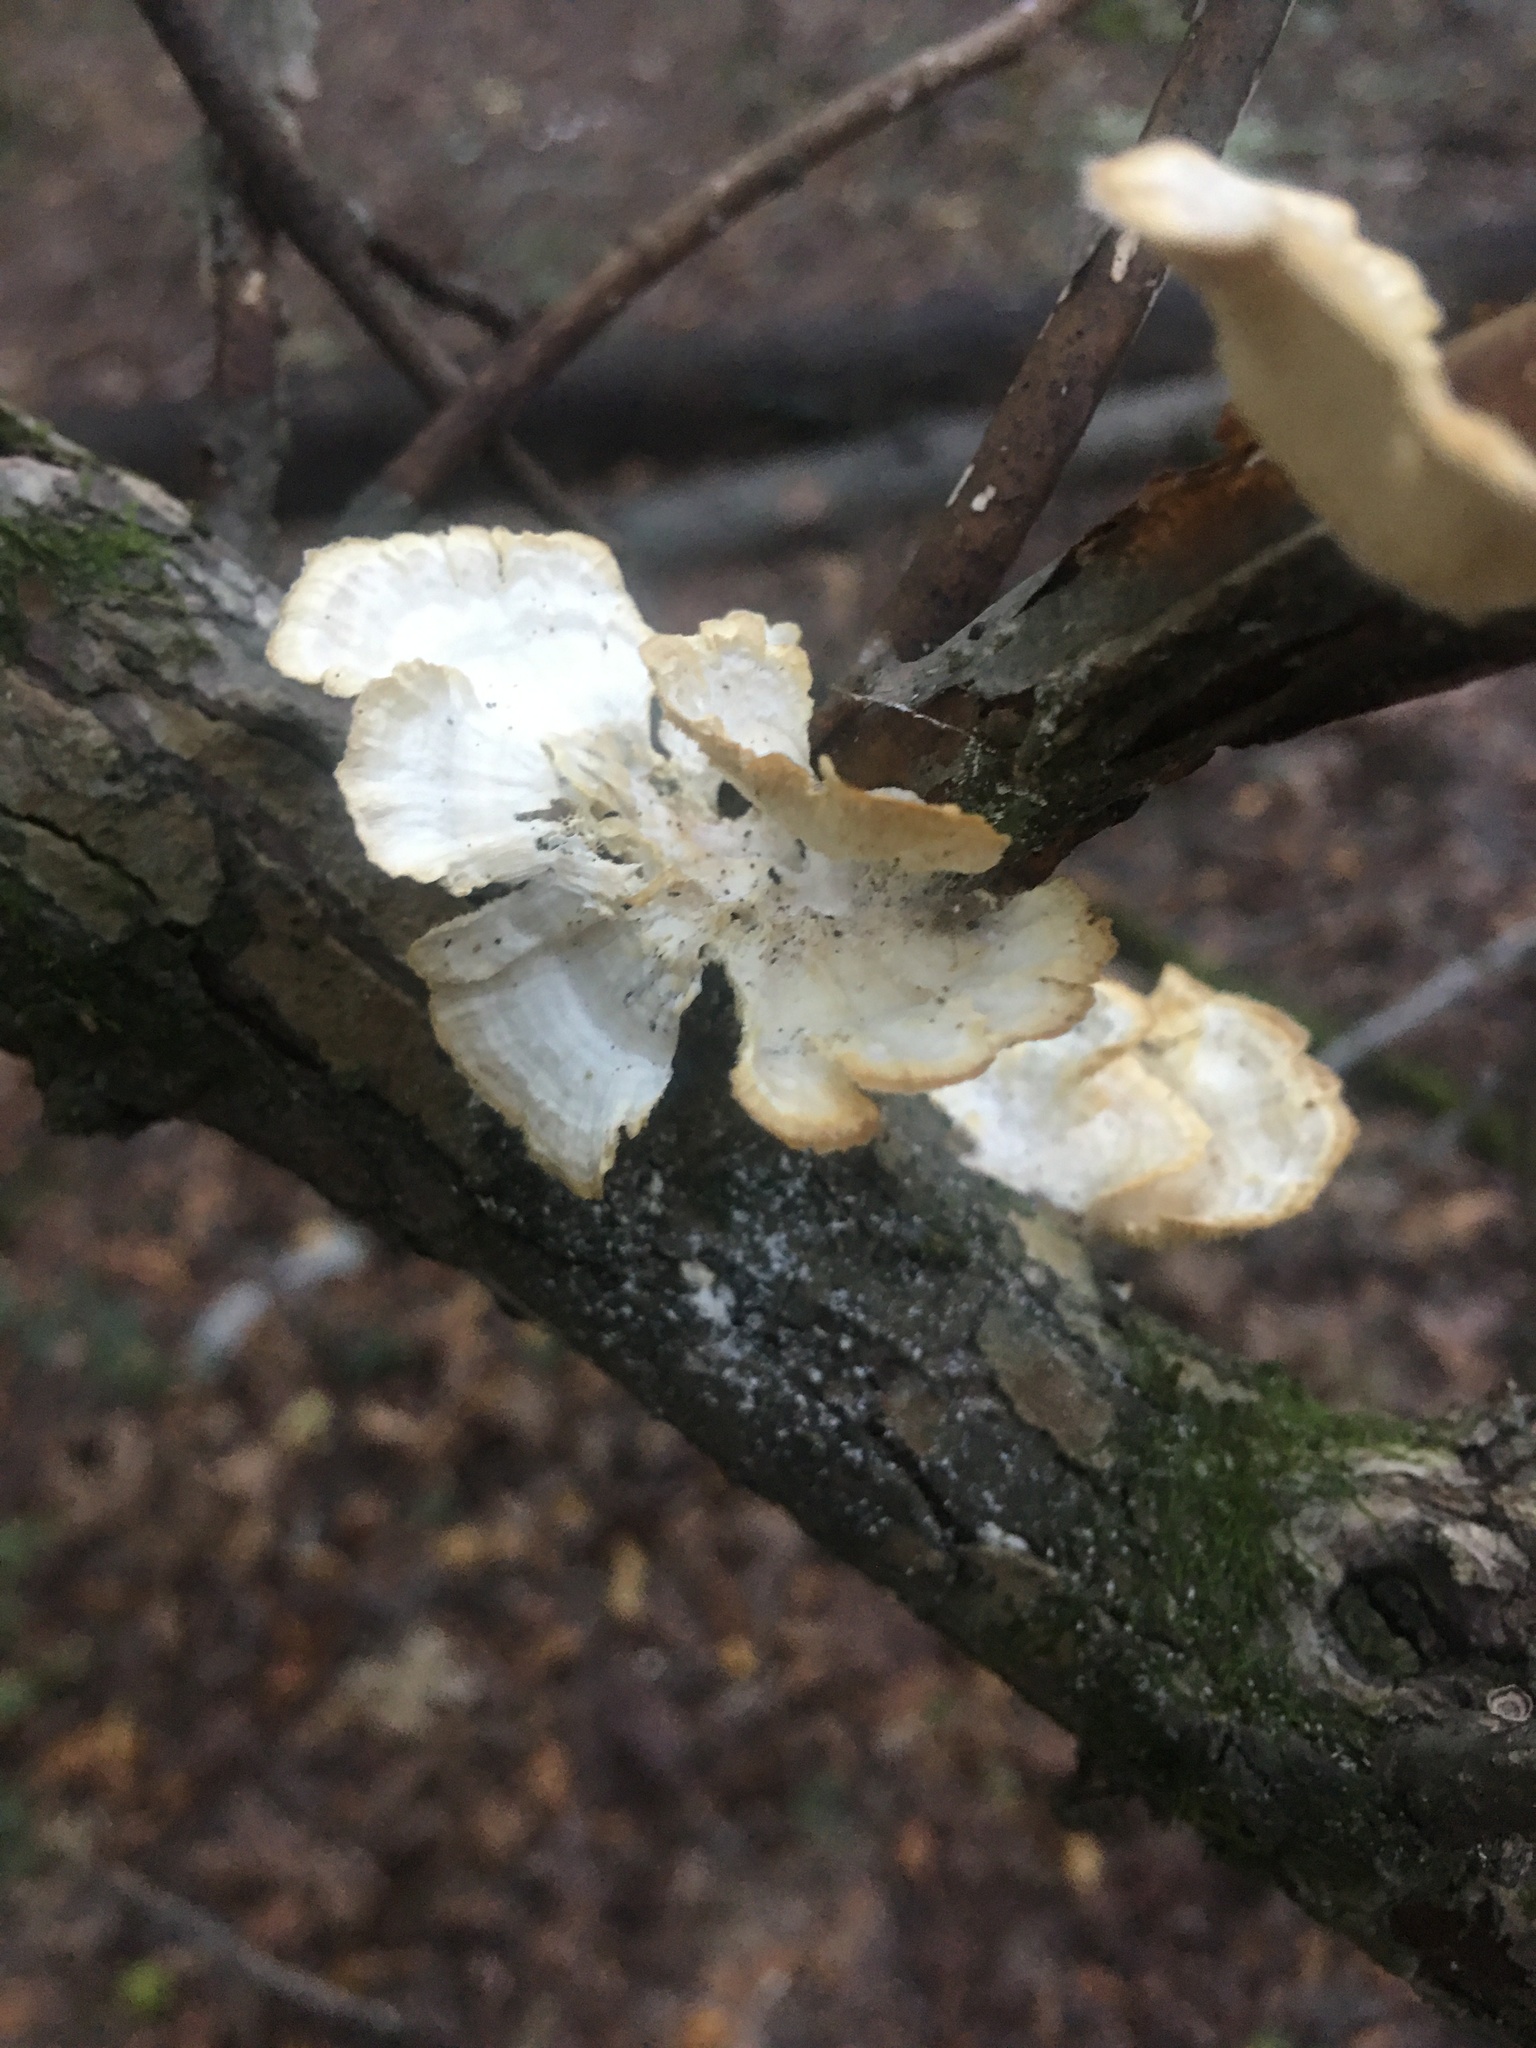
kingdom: Fungi
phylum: Basidiomycota
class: Agaricomycetes
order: Polyporales
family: Polyporaceae
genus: Poronidulus
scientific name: Poronidulus conchifer
